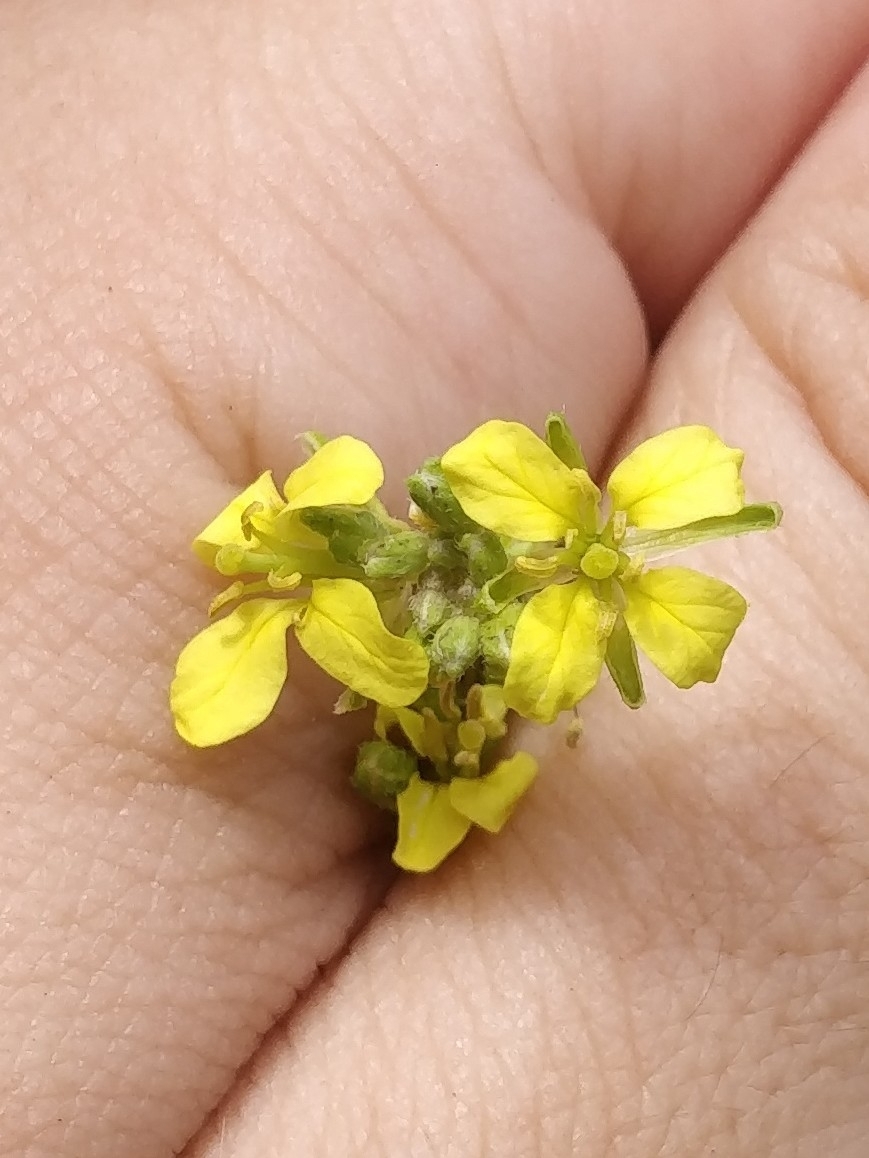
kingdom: Plantae
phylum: Tracheophyta
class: Magnoliopsida
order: Brassicales
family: Brassicaceae
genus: Sinapidendron
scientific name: Sinapidendron angustifolium
